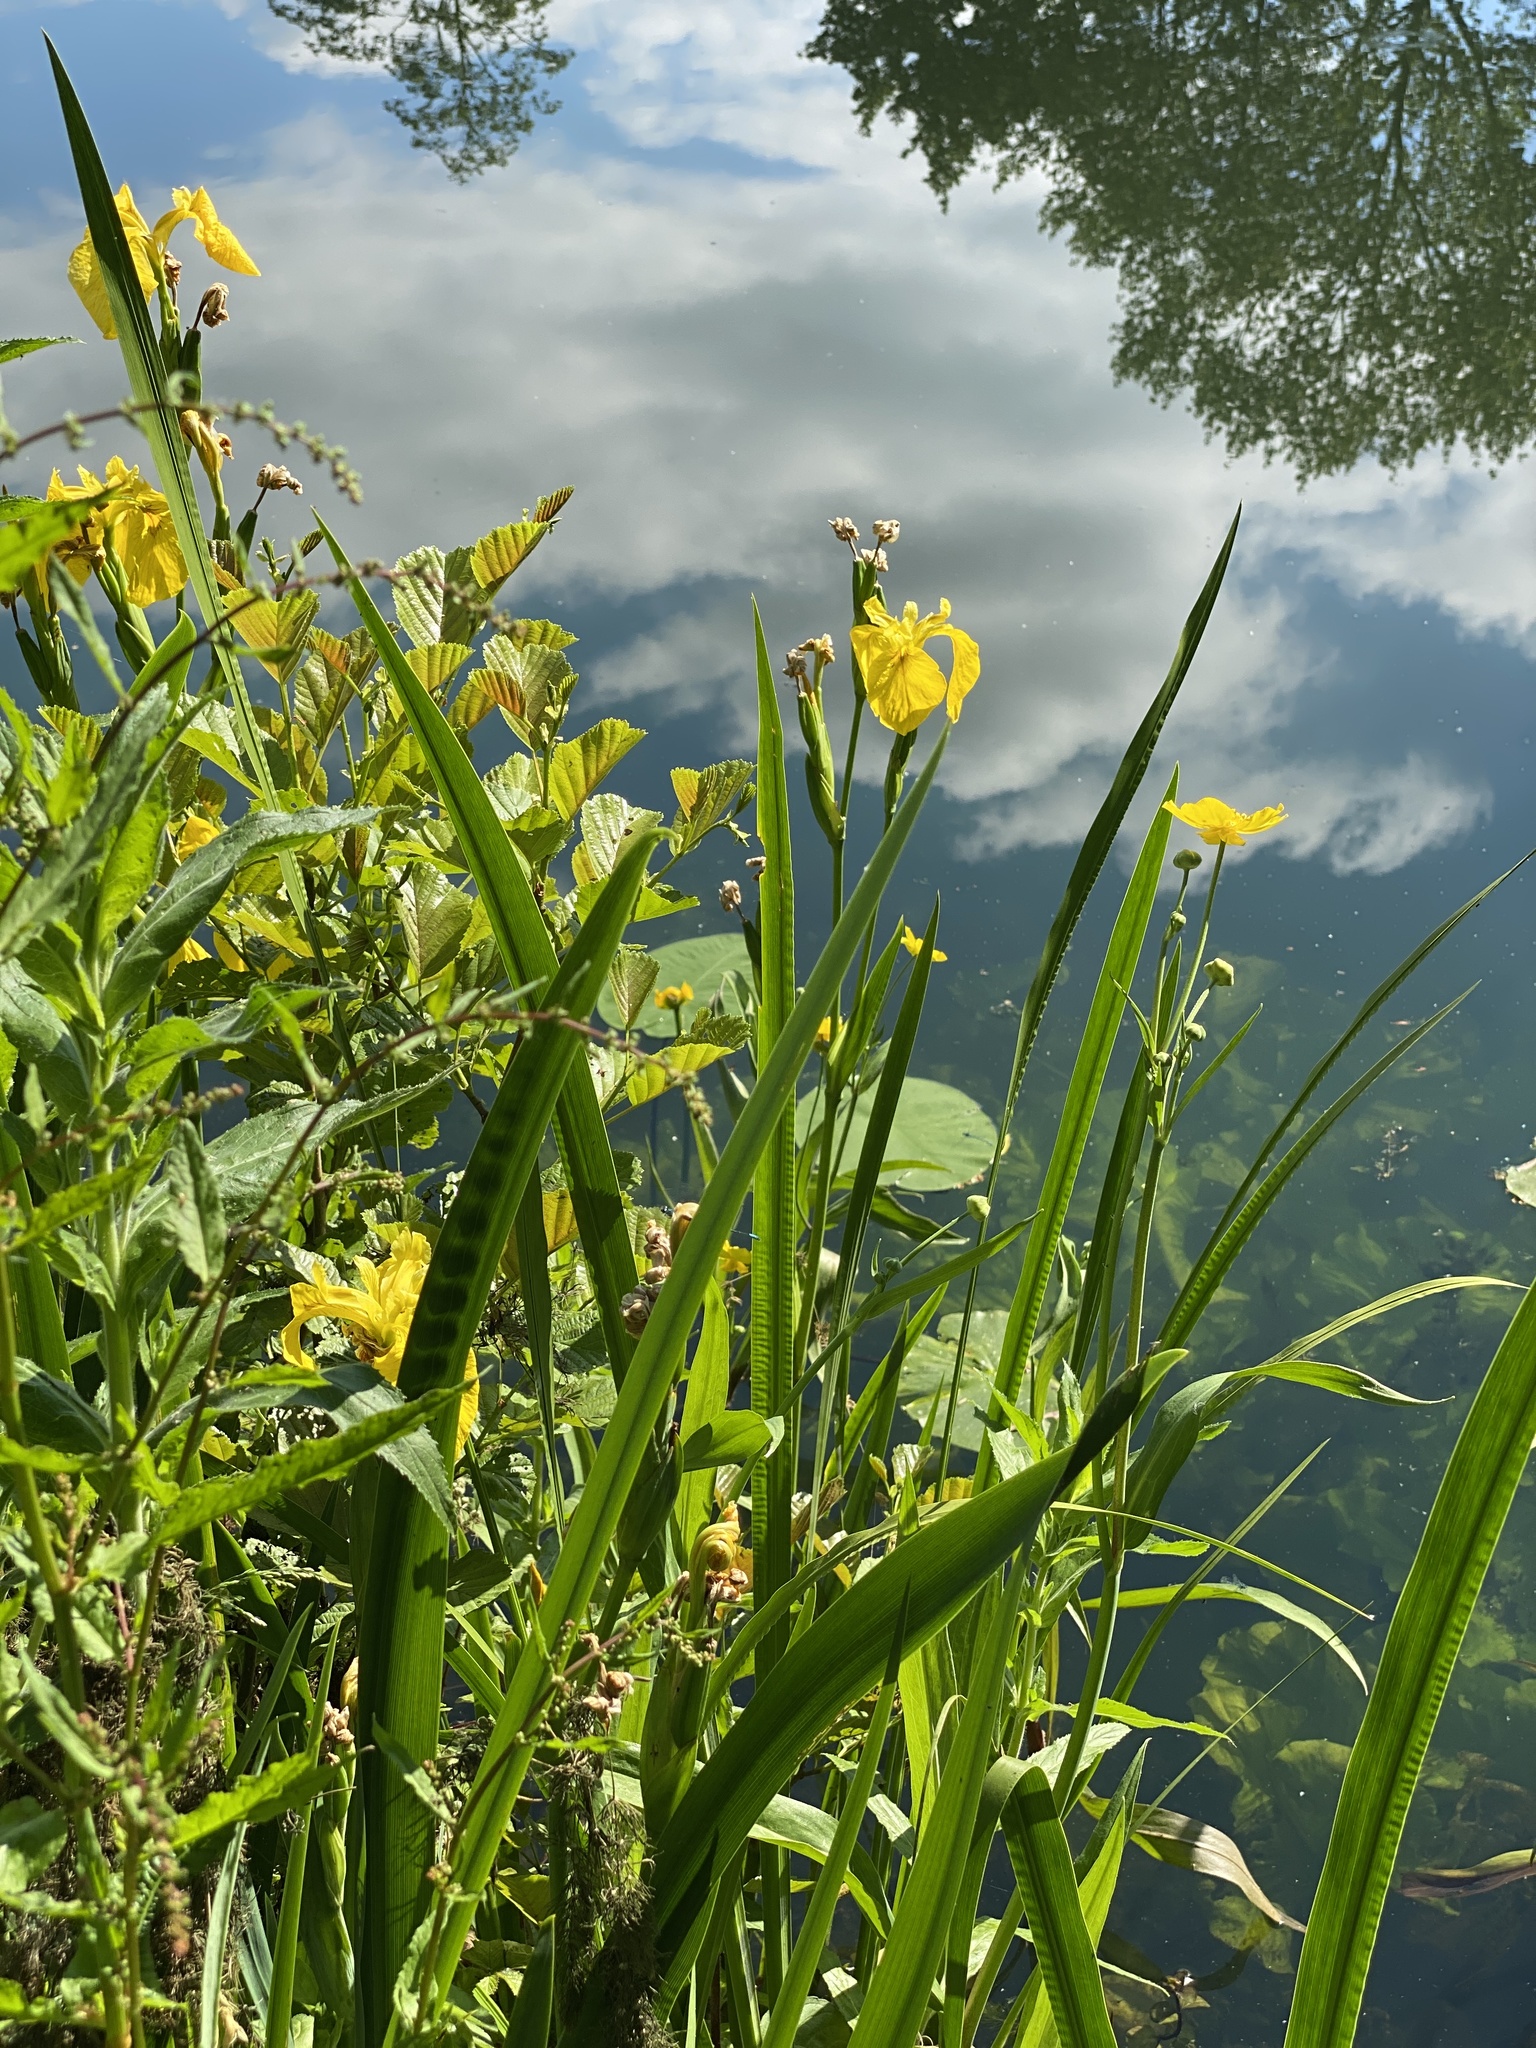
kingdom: Plantae
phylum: Tracheophyta
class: Liliopsida
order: Asparagales
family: Iridaceae
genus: Iris
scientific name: Iris pseudacorus
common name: Yellow flag
